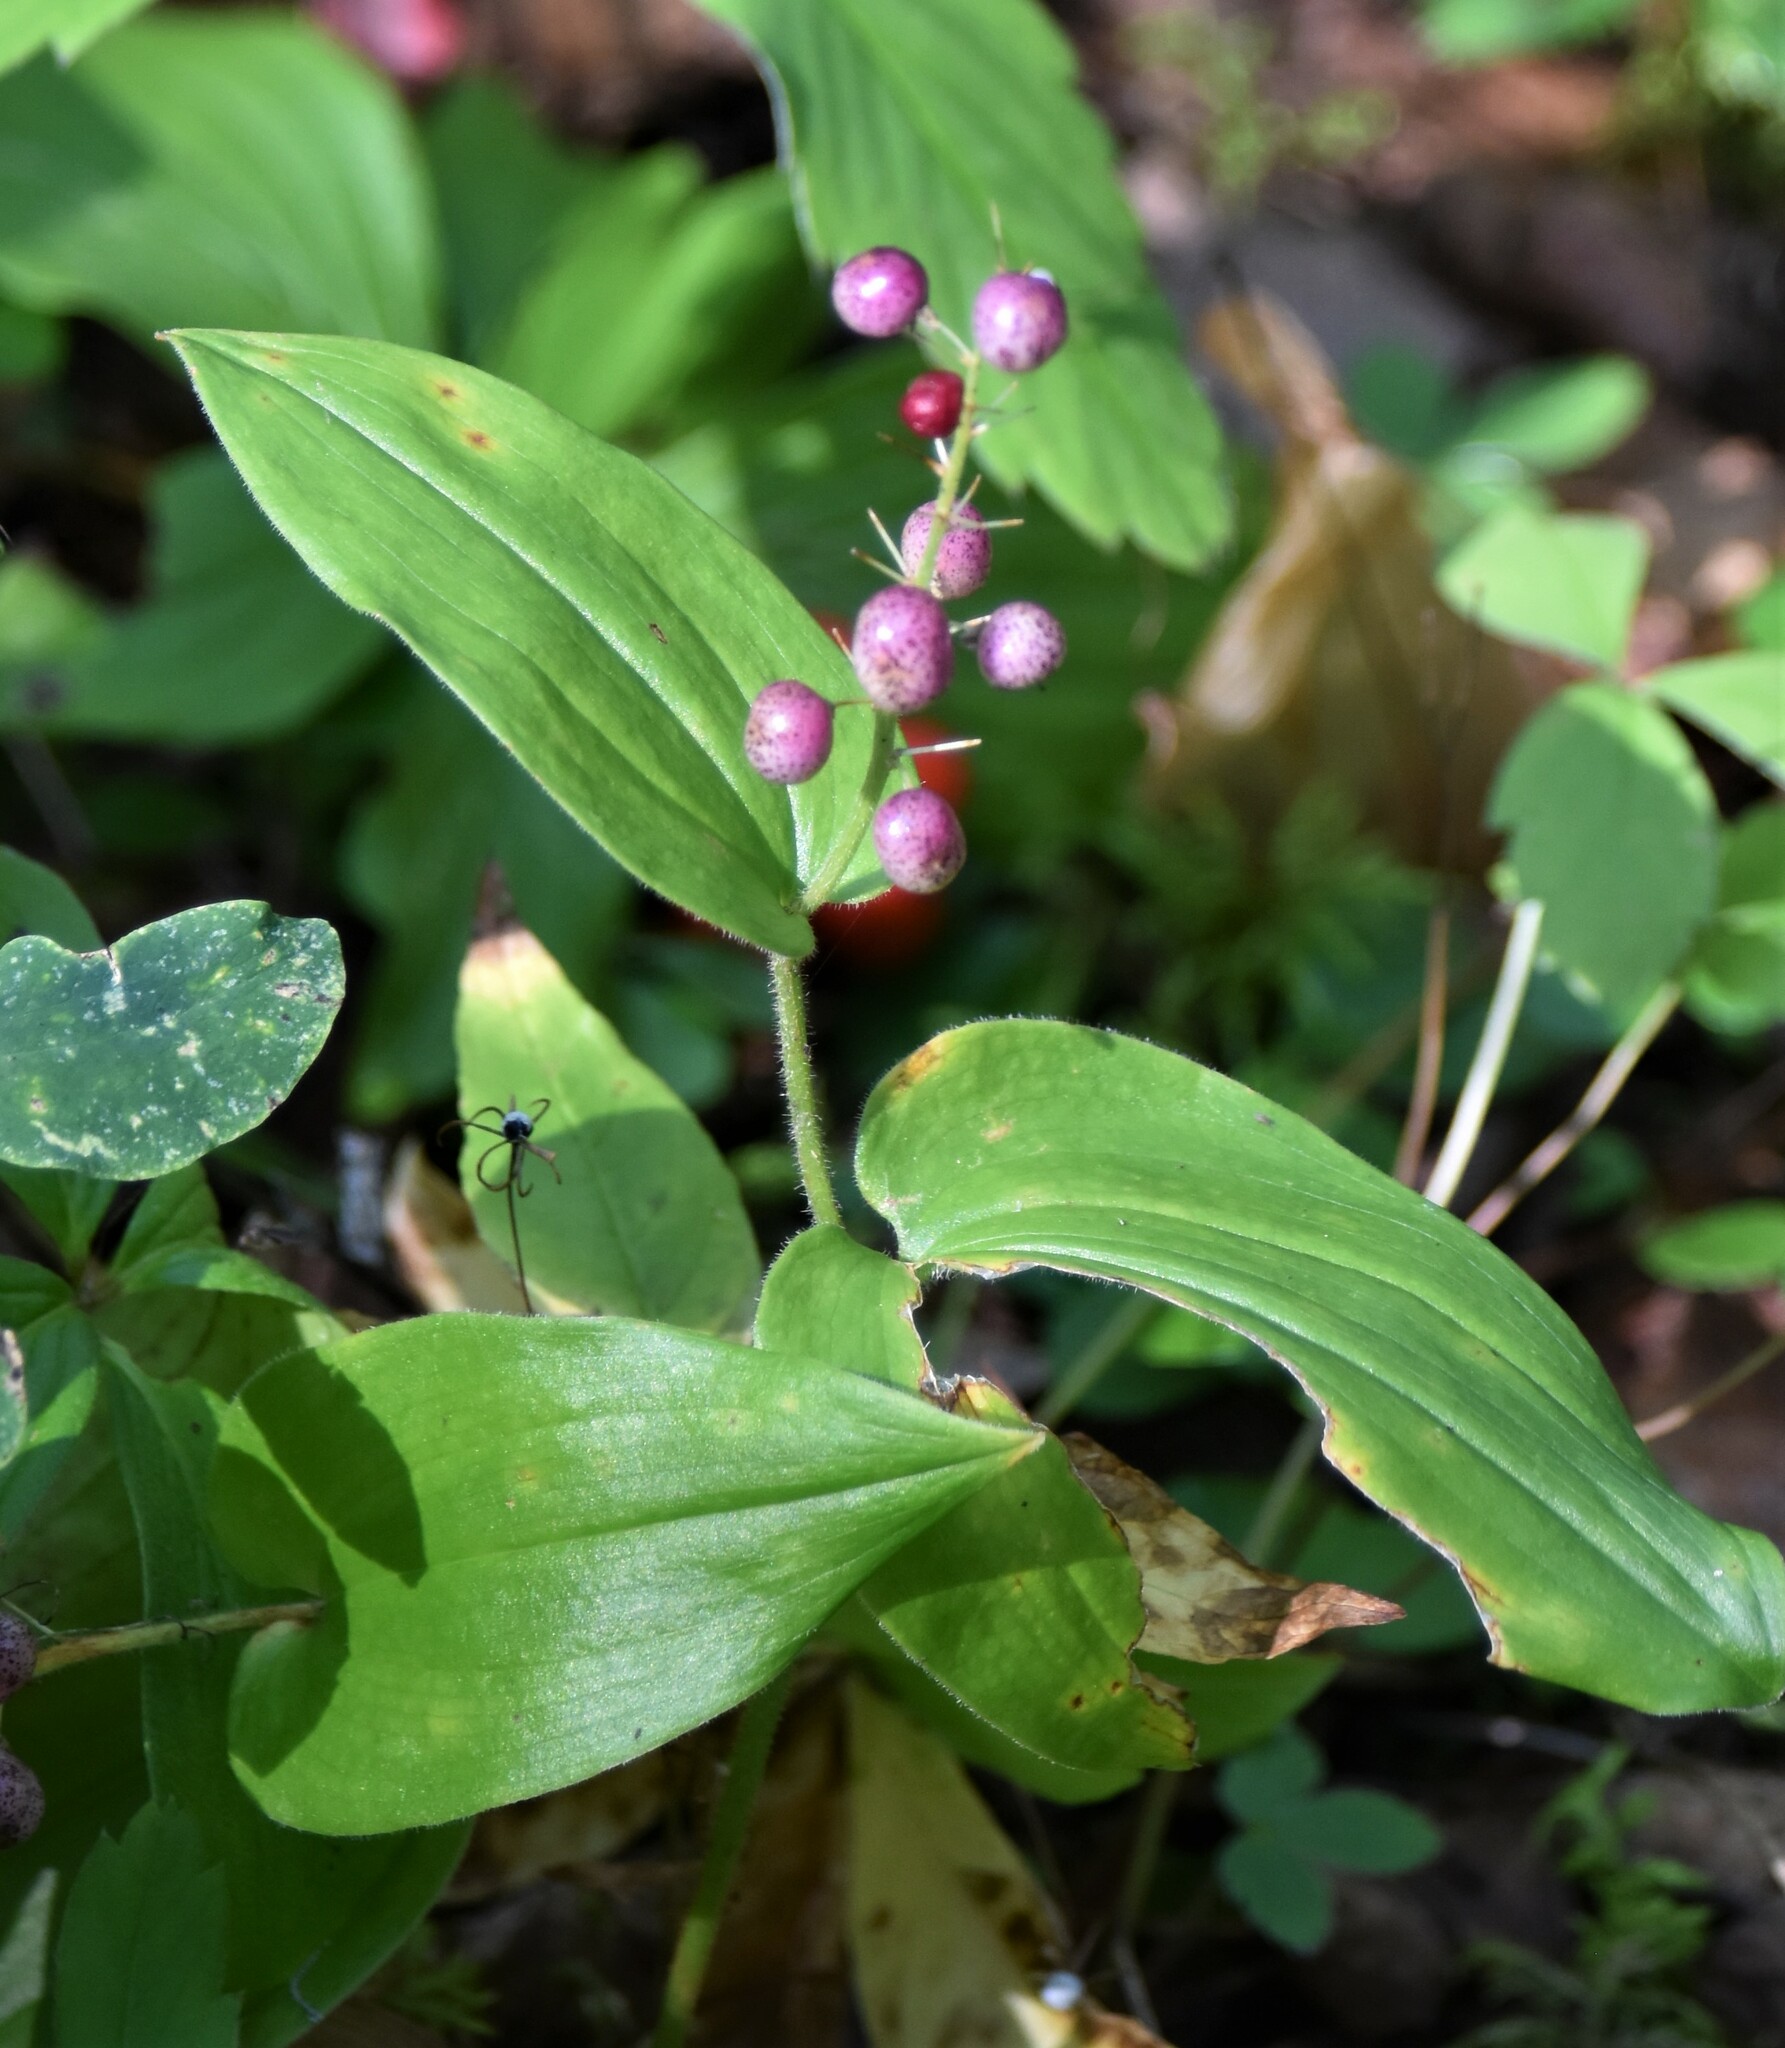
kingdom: Plantae
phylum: Tracheophyta
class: Liliopsida
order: Asparagales
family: Asparagaceae
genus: Maianthemum
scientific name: Maianthemum canadense
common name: False lily-of-the-valley
